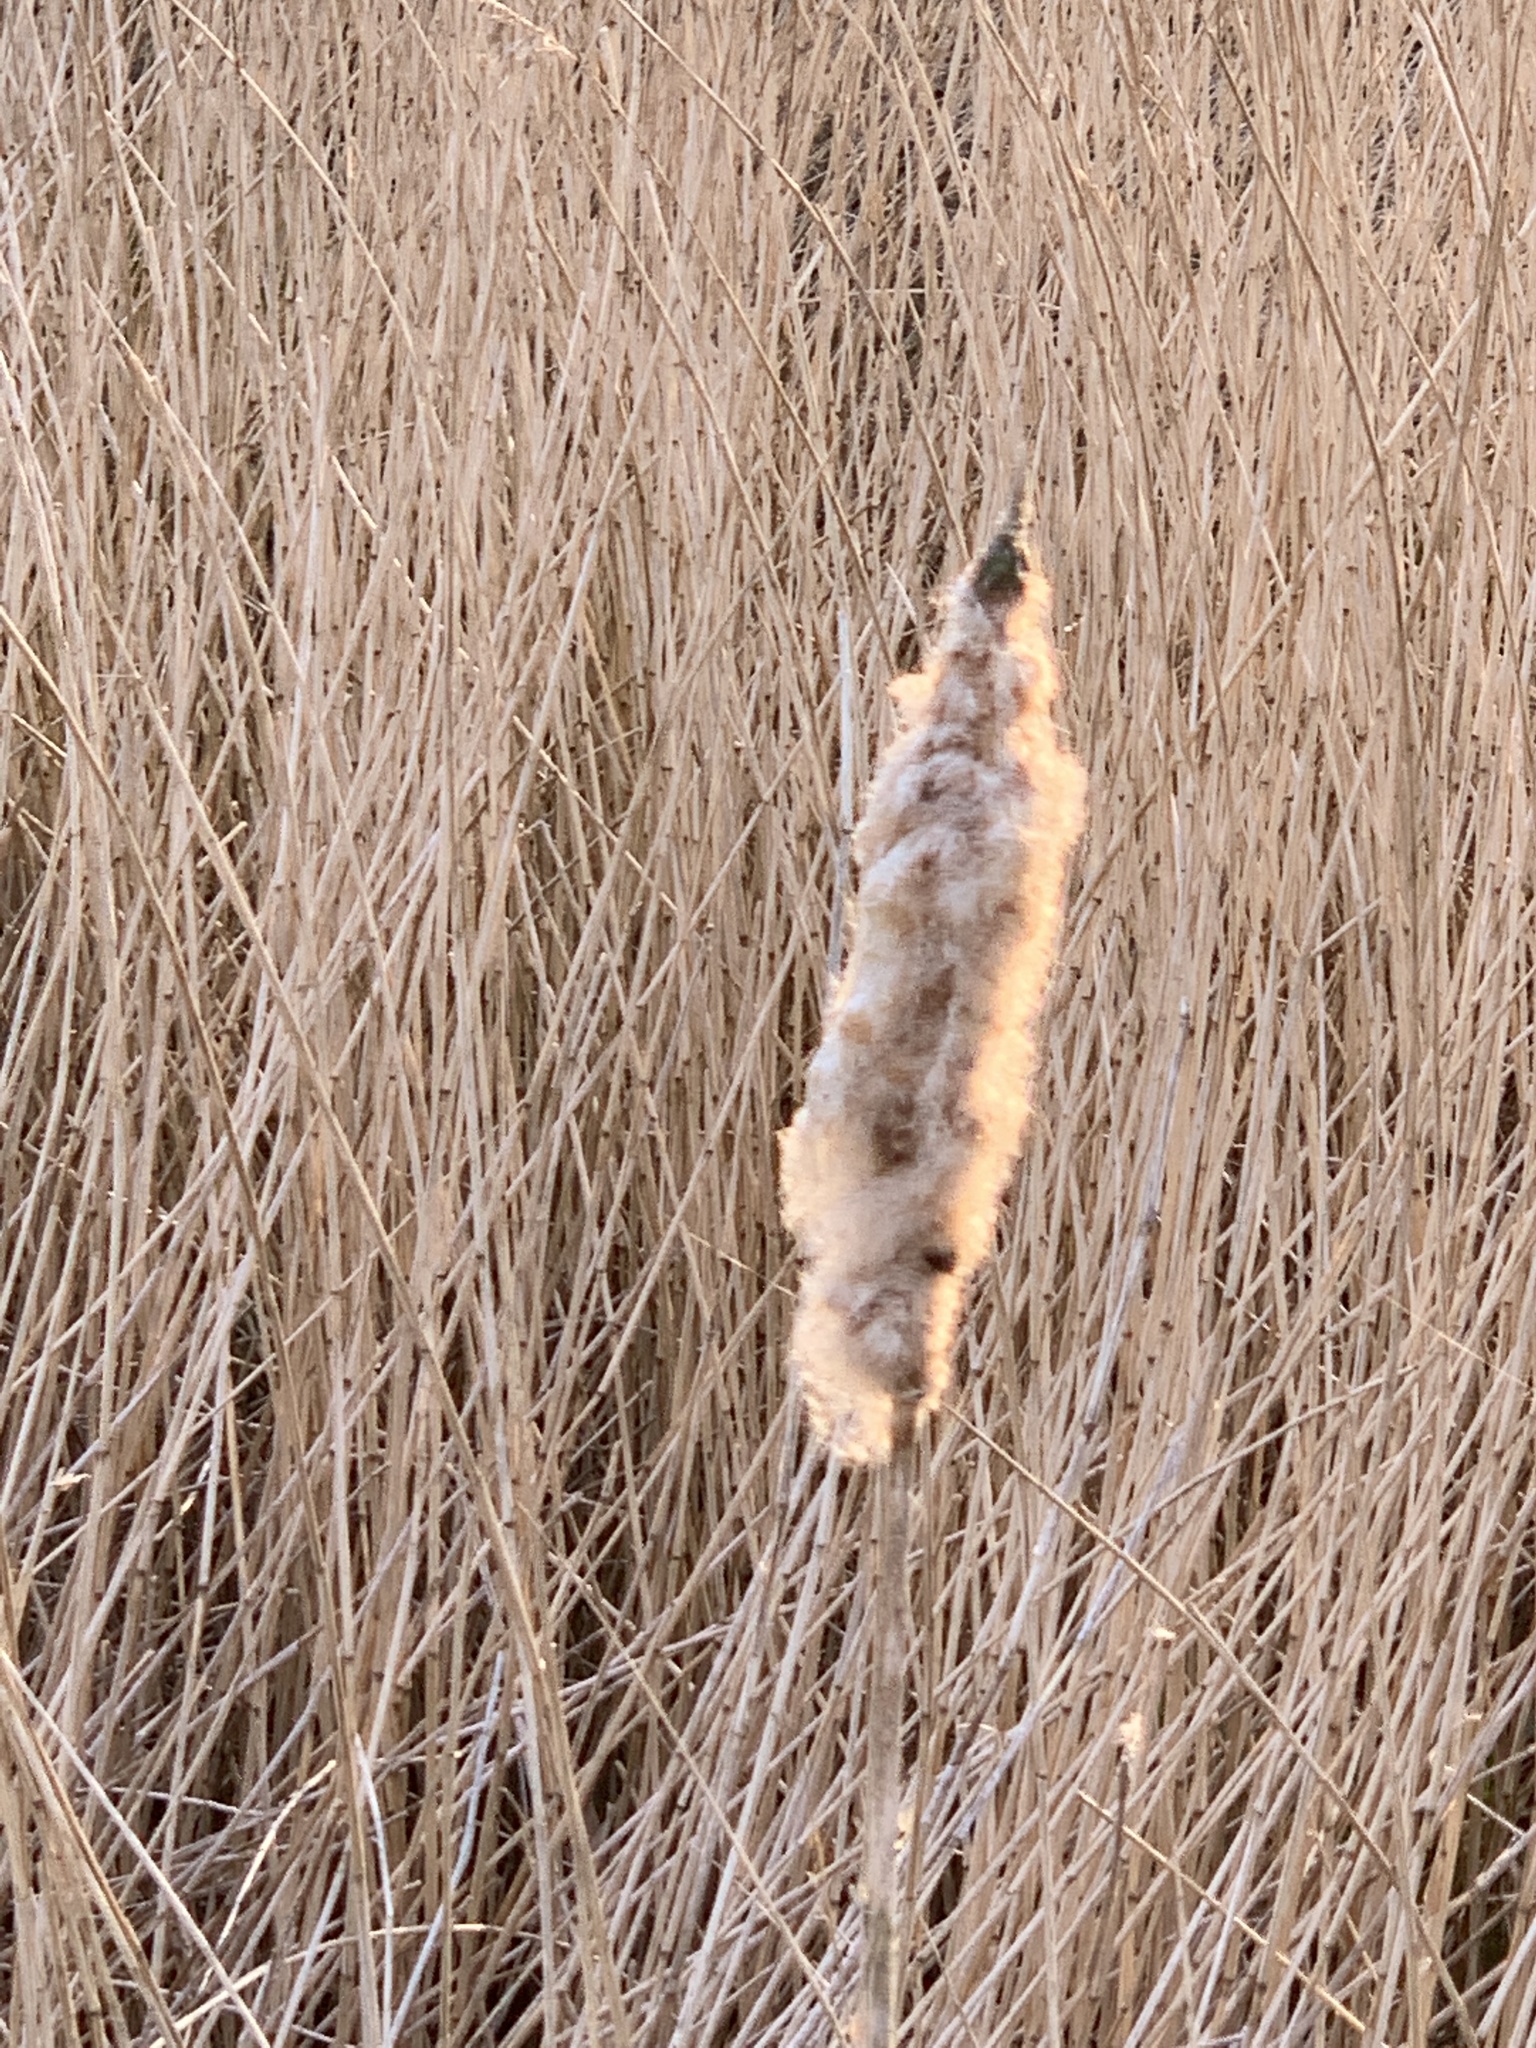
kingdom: Plantae
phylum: Tracheophyta
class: Liliopsida
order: Poales
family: Typhaceae
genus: Typha
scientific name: Typha latifolia
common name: Broadleaf cattail
